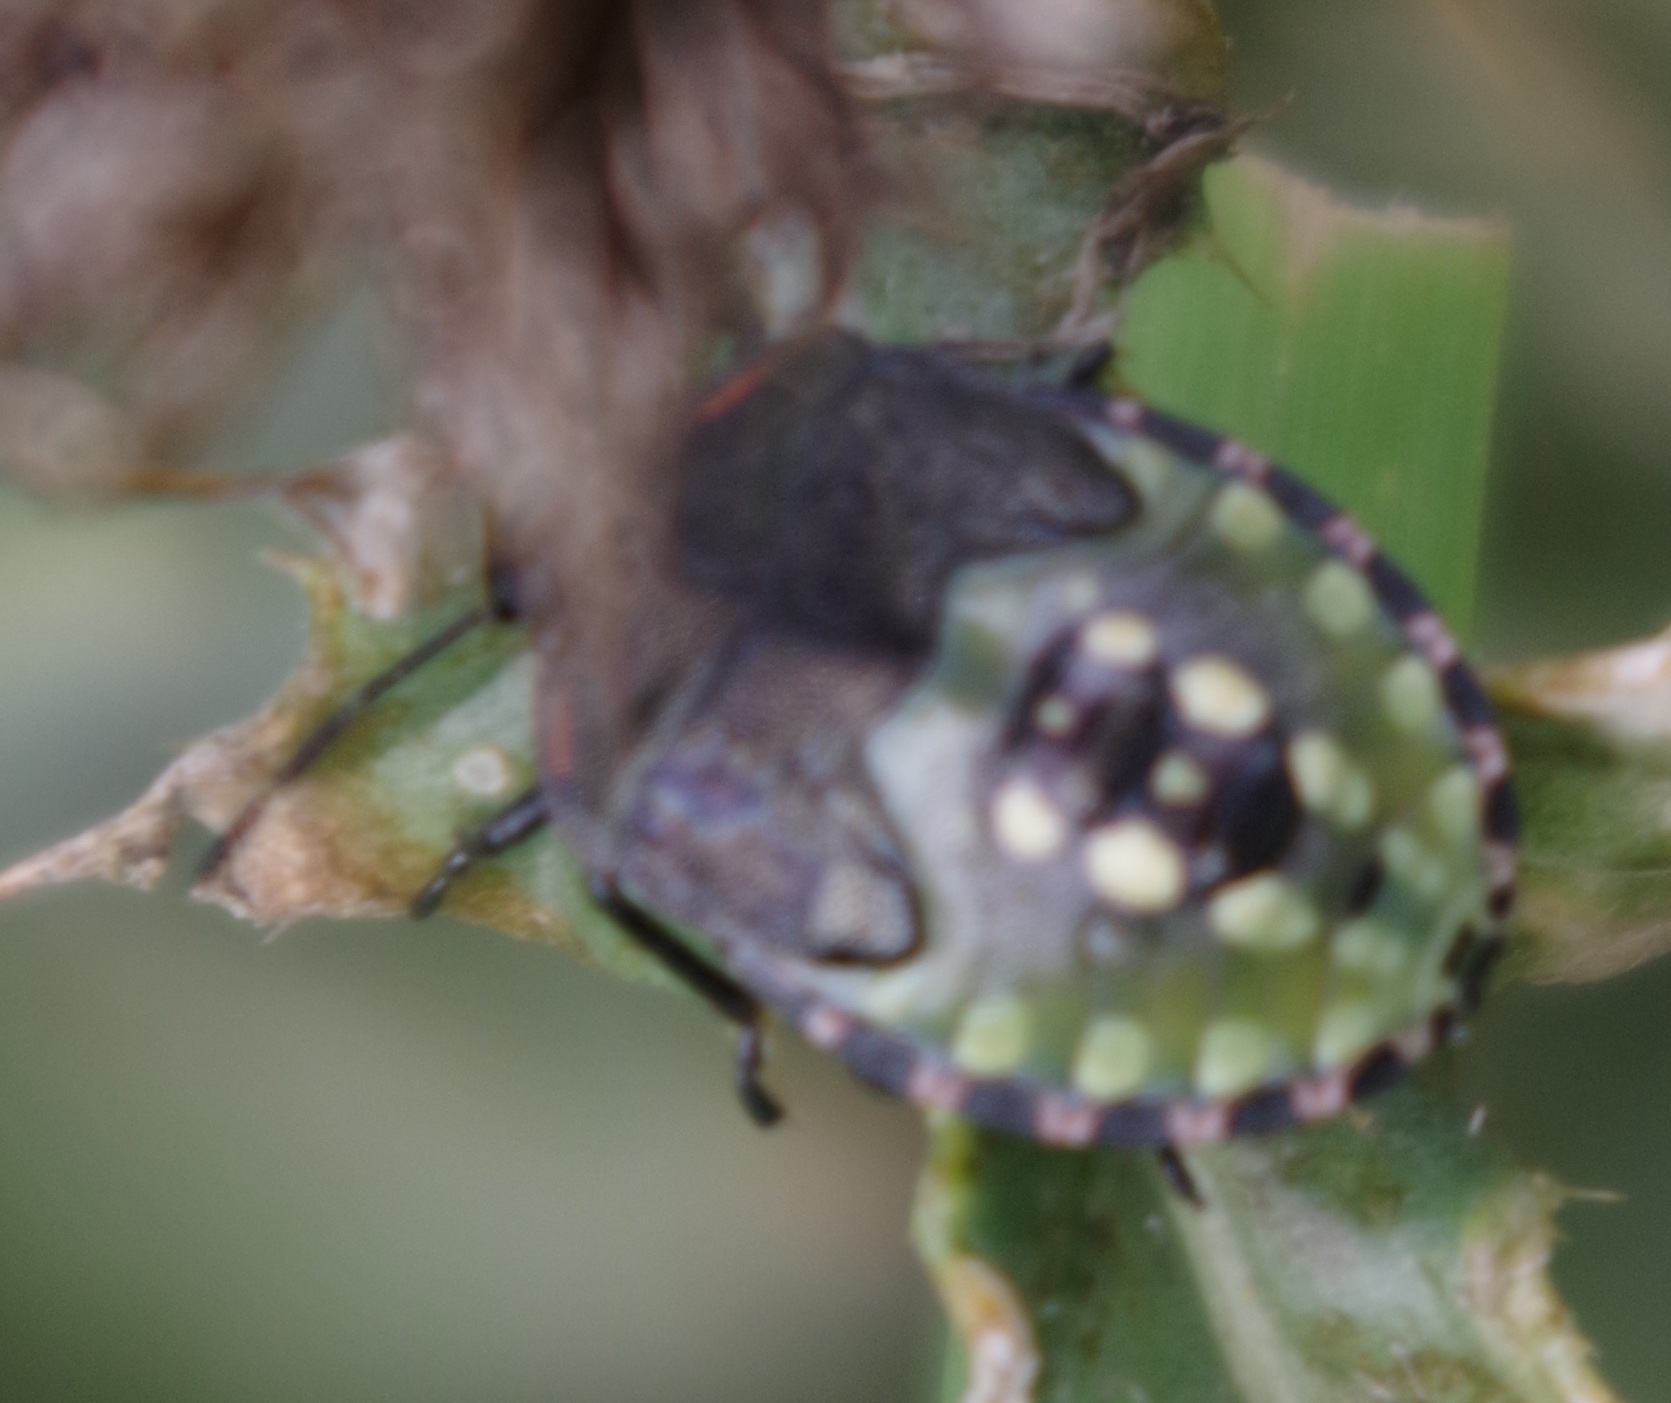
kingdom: Animalia
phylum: Arthropoda
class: Insecta
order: Hemiptera
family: Pentatomidae
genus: Nezara
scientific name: Nezara viridula
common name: Southern green stink bug
